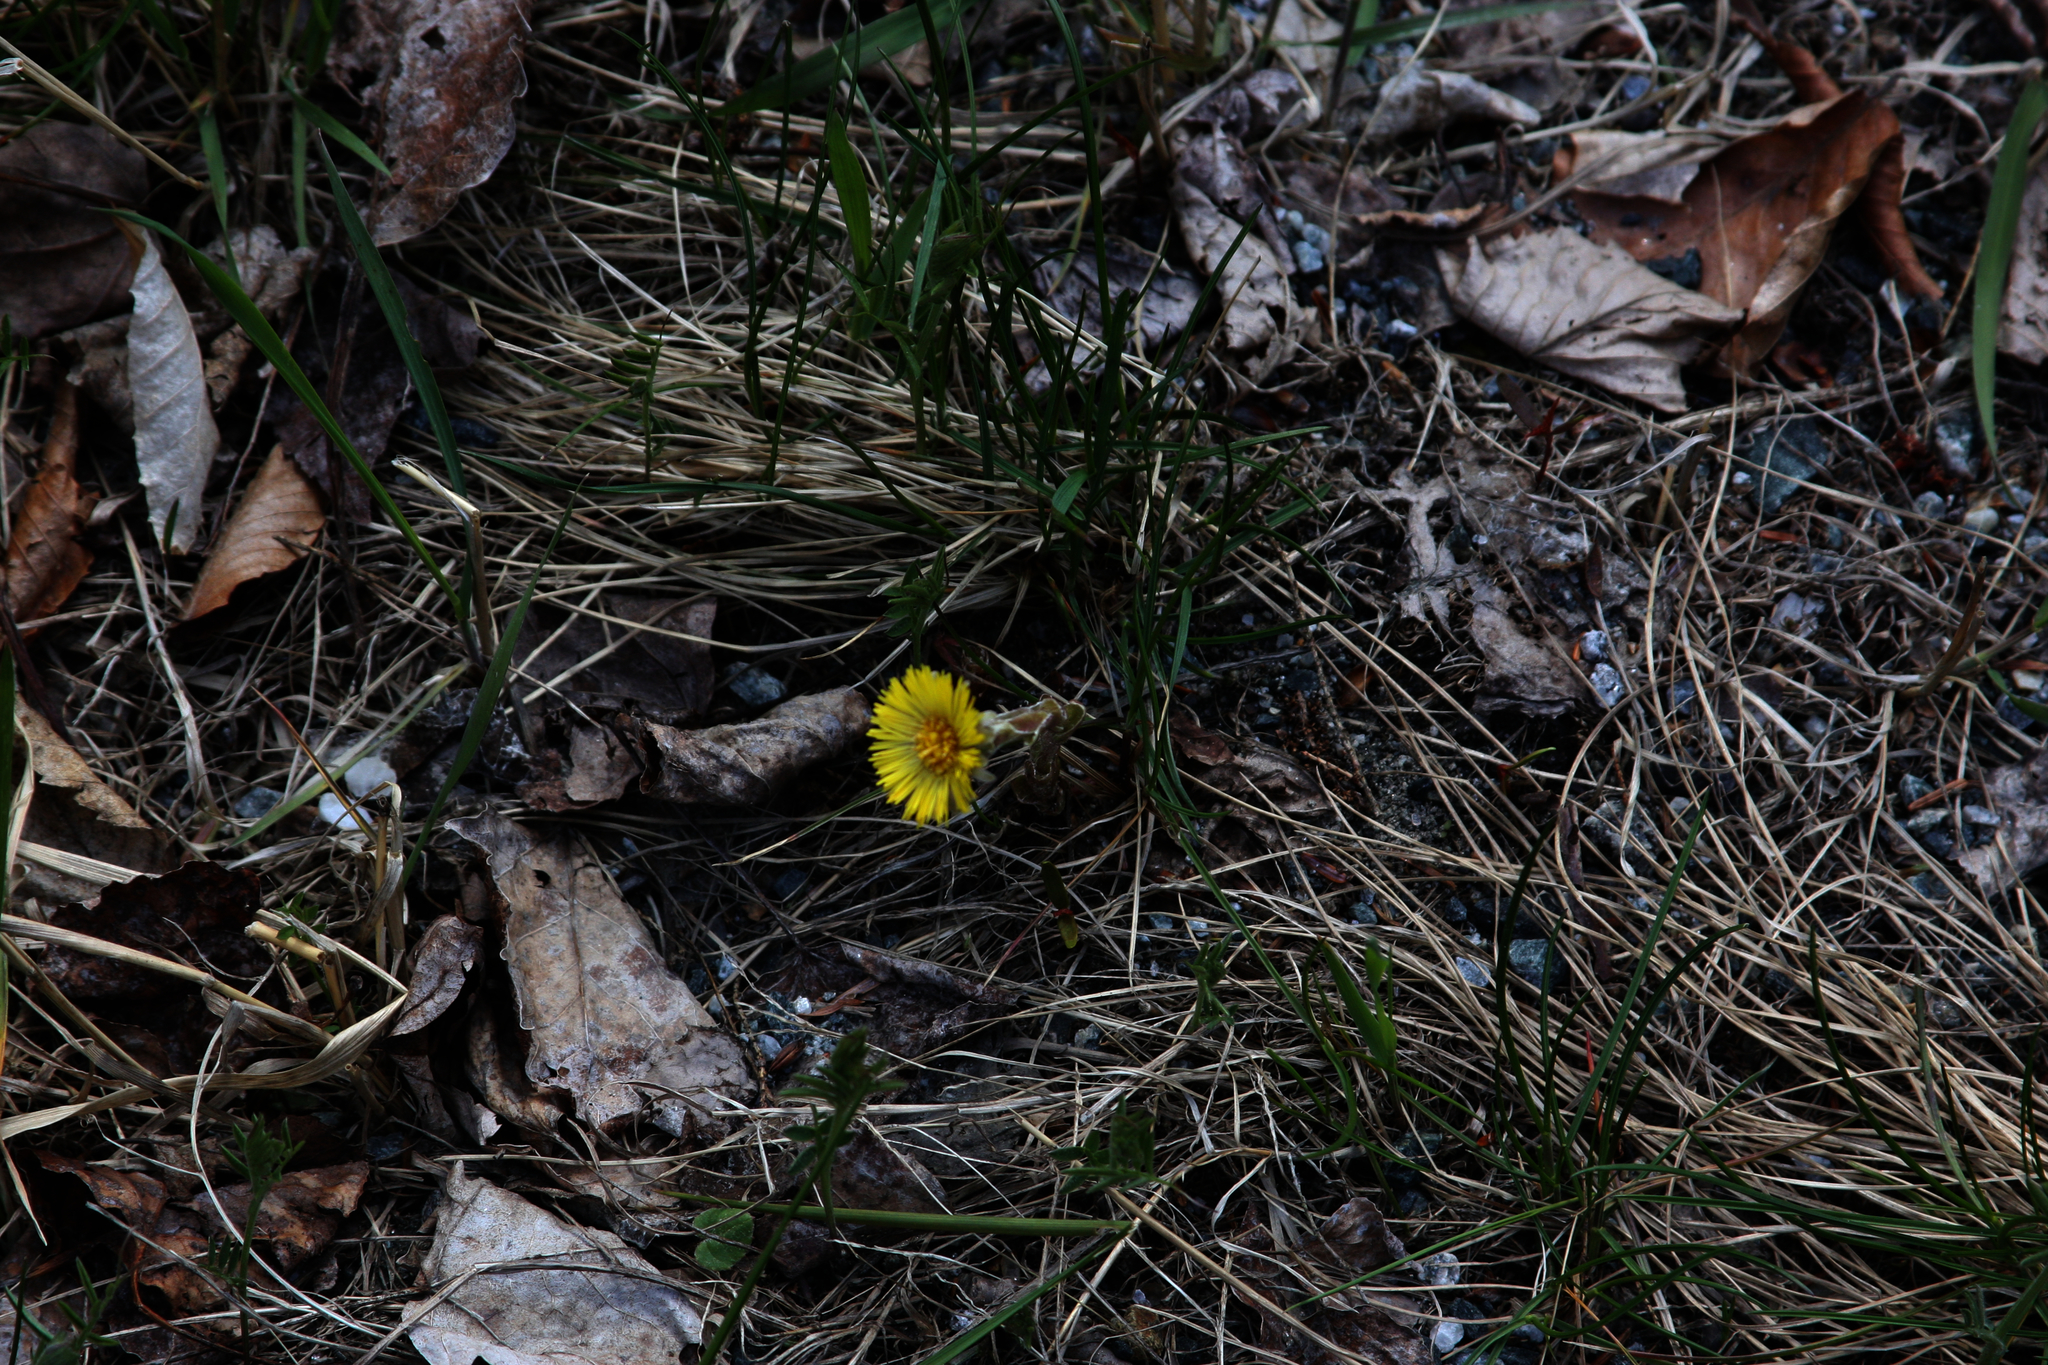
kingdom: Plantae
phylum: Tracheophyta
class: Magnoliopsida
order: Asterales
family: Asteraceae
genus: Tussilago
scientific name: Tussilago farfara
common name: Coltsfoot
